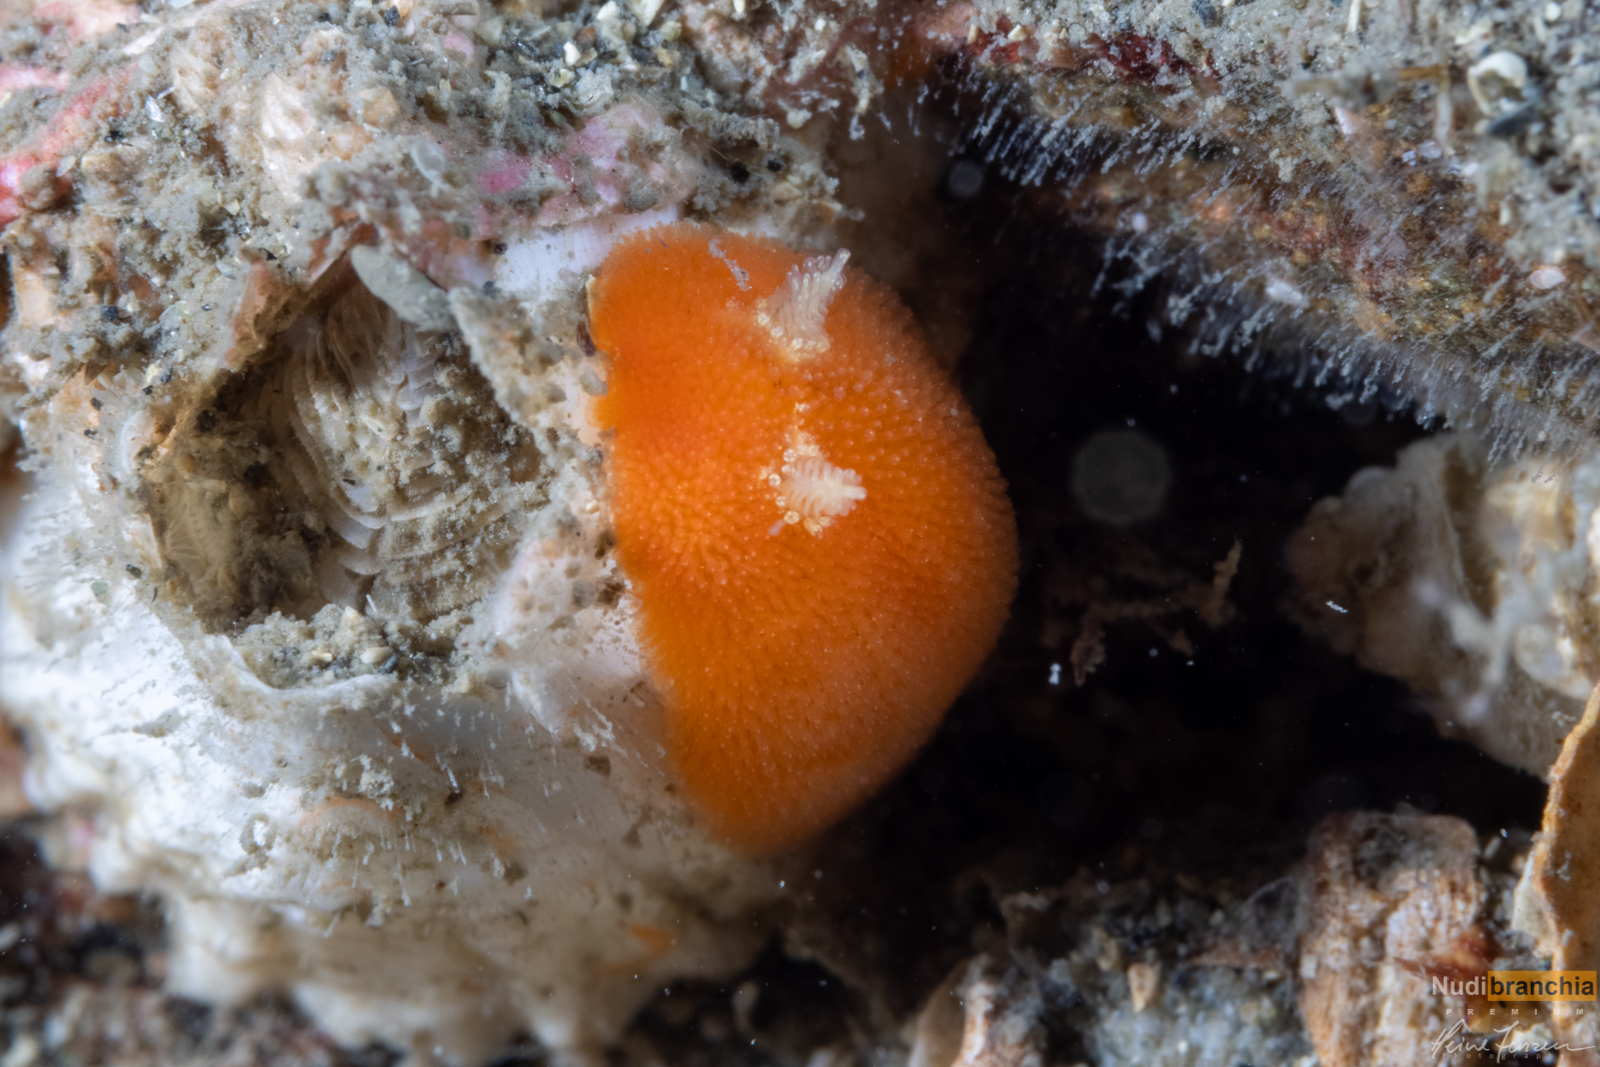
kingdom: Animalia
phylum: Mollusca
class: Gastropoda
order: Nudibranchia
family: Discodorididae
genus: Rostanga
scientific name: Rostanga rubra
